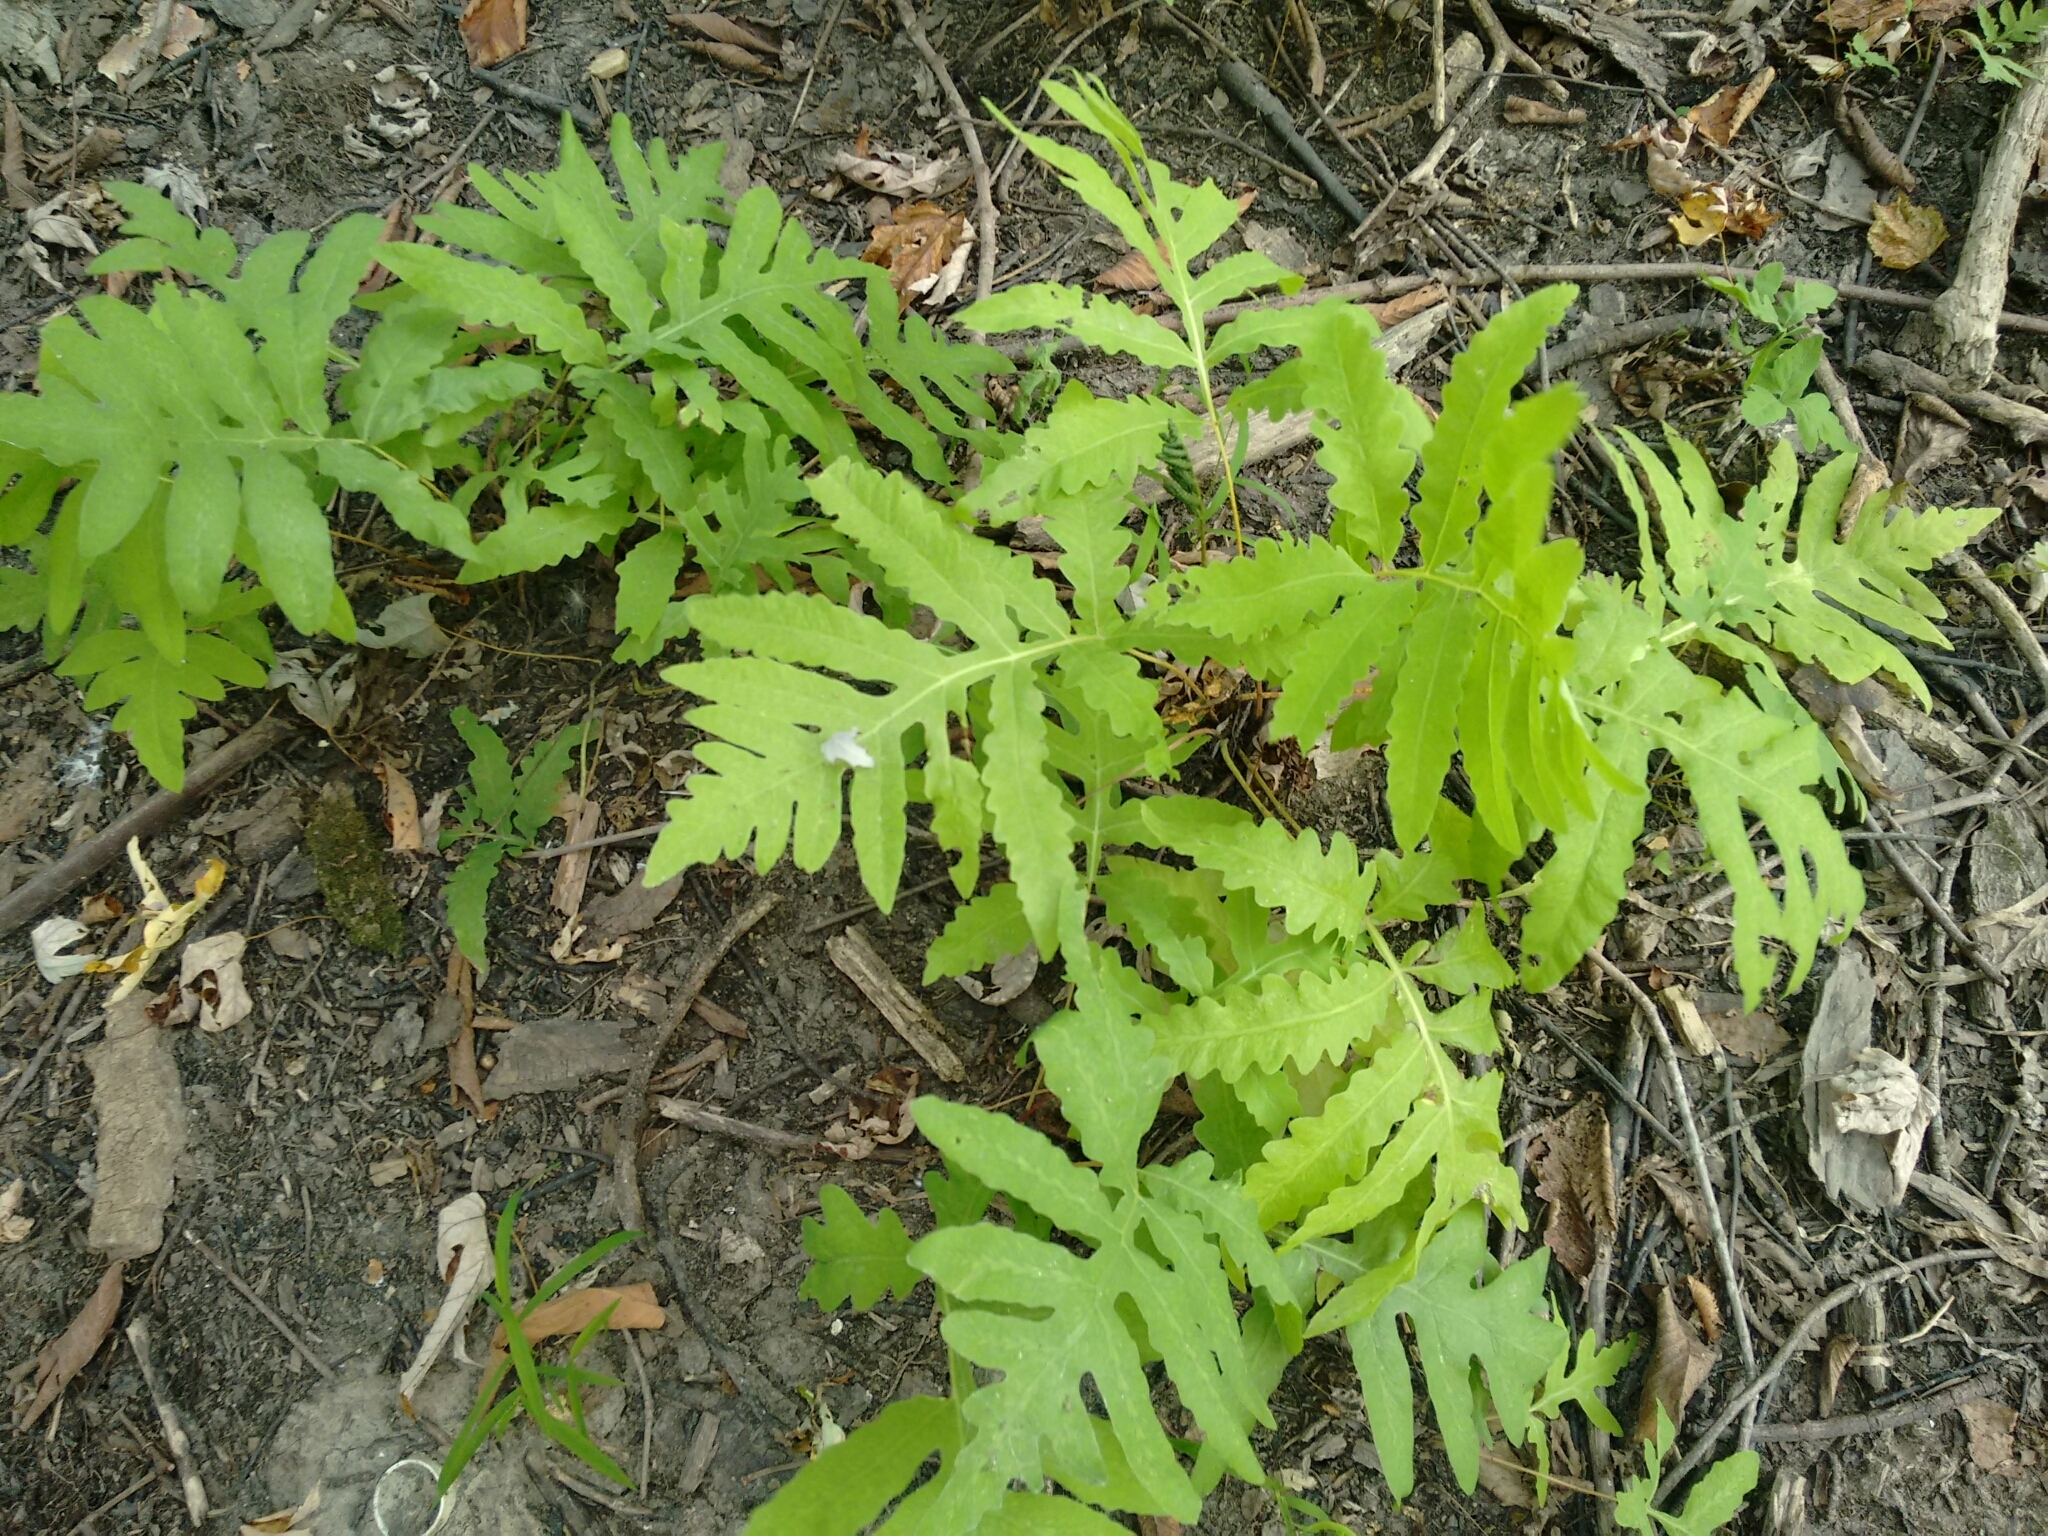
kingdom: Plantae
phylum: Tracheophyta
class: Polypodiopsida
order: Polypodiales
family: Onocleaceae
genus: Onoclea
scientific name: Onoclea sensibilis
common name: Sensitive fern
